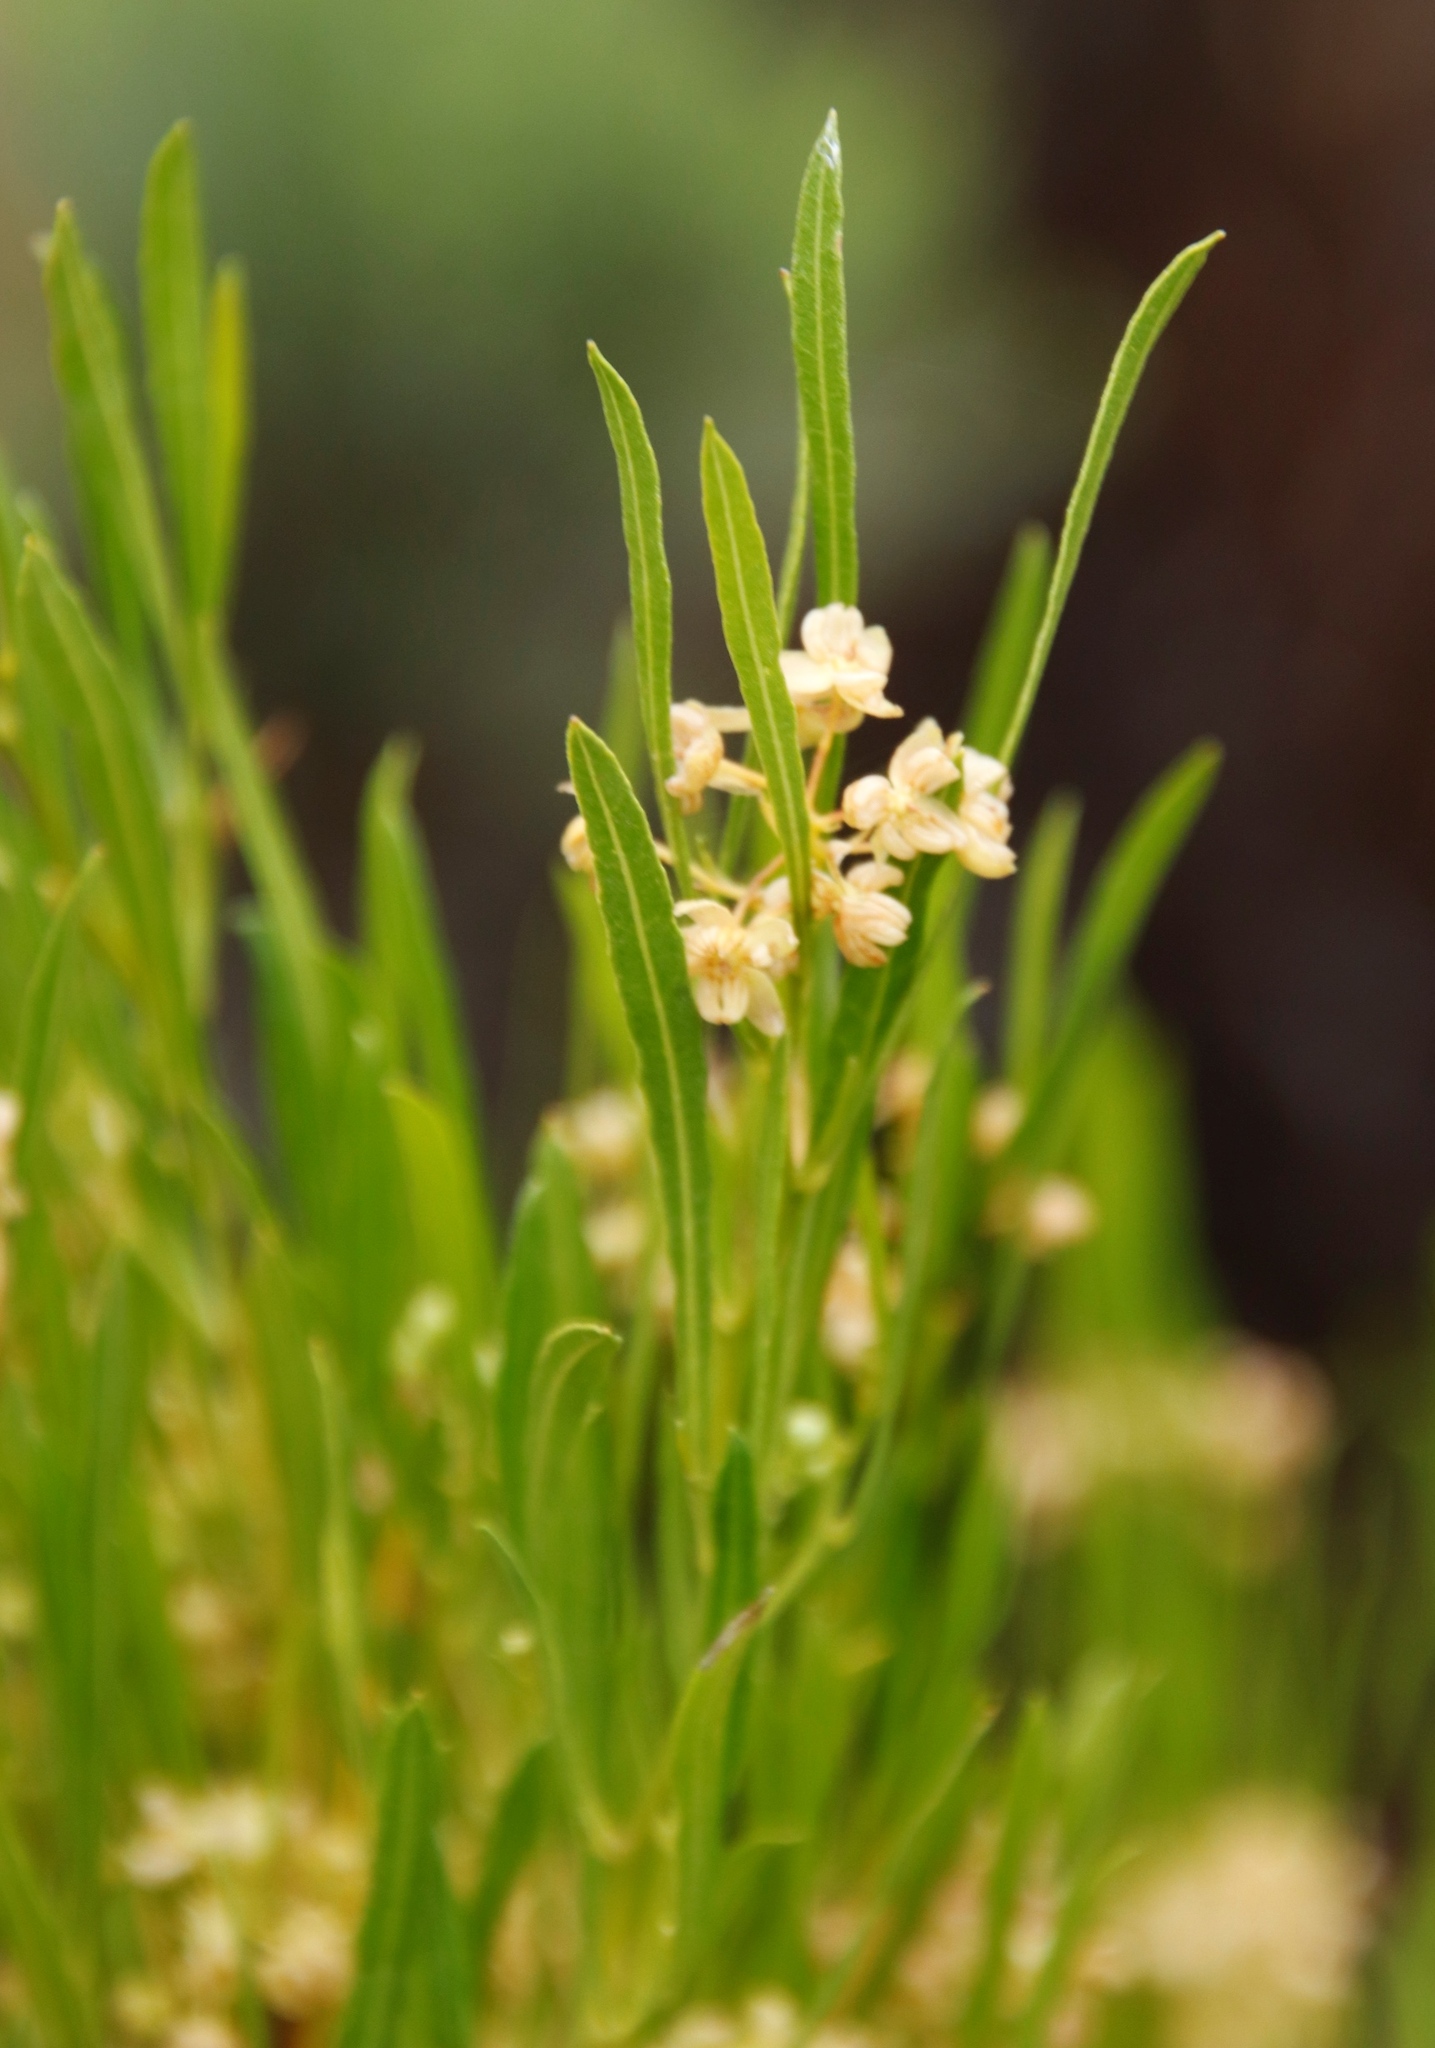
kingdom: Plantae
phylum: Tracheophyta
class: Magnoliopsida
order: Sapindales
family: Sapindaceae
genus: Dodonaea
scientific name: Dodonaea viscosa
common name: Hopbush
